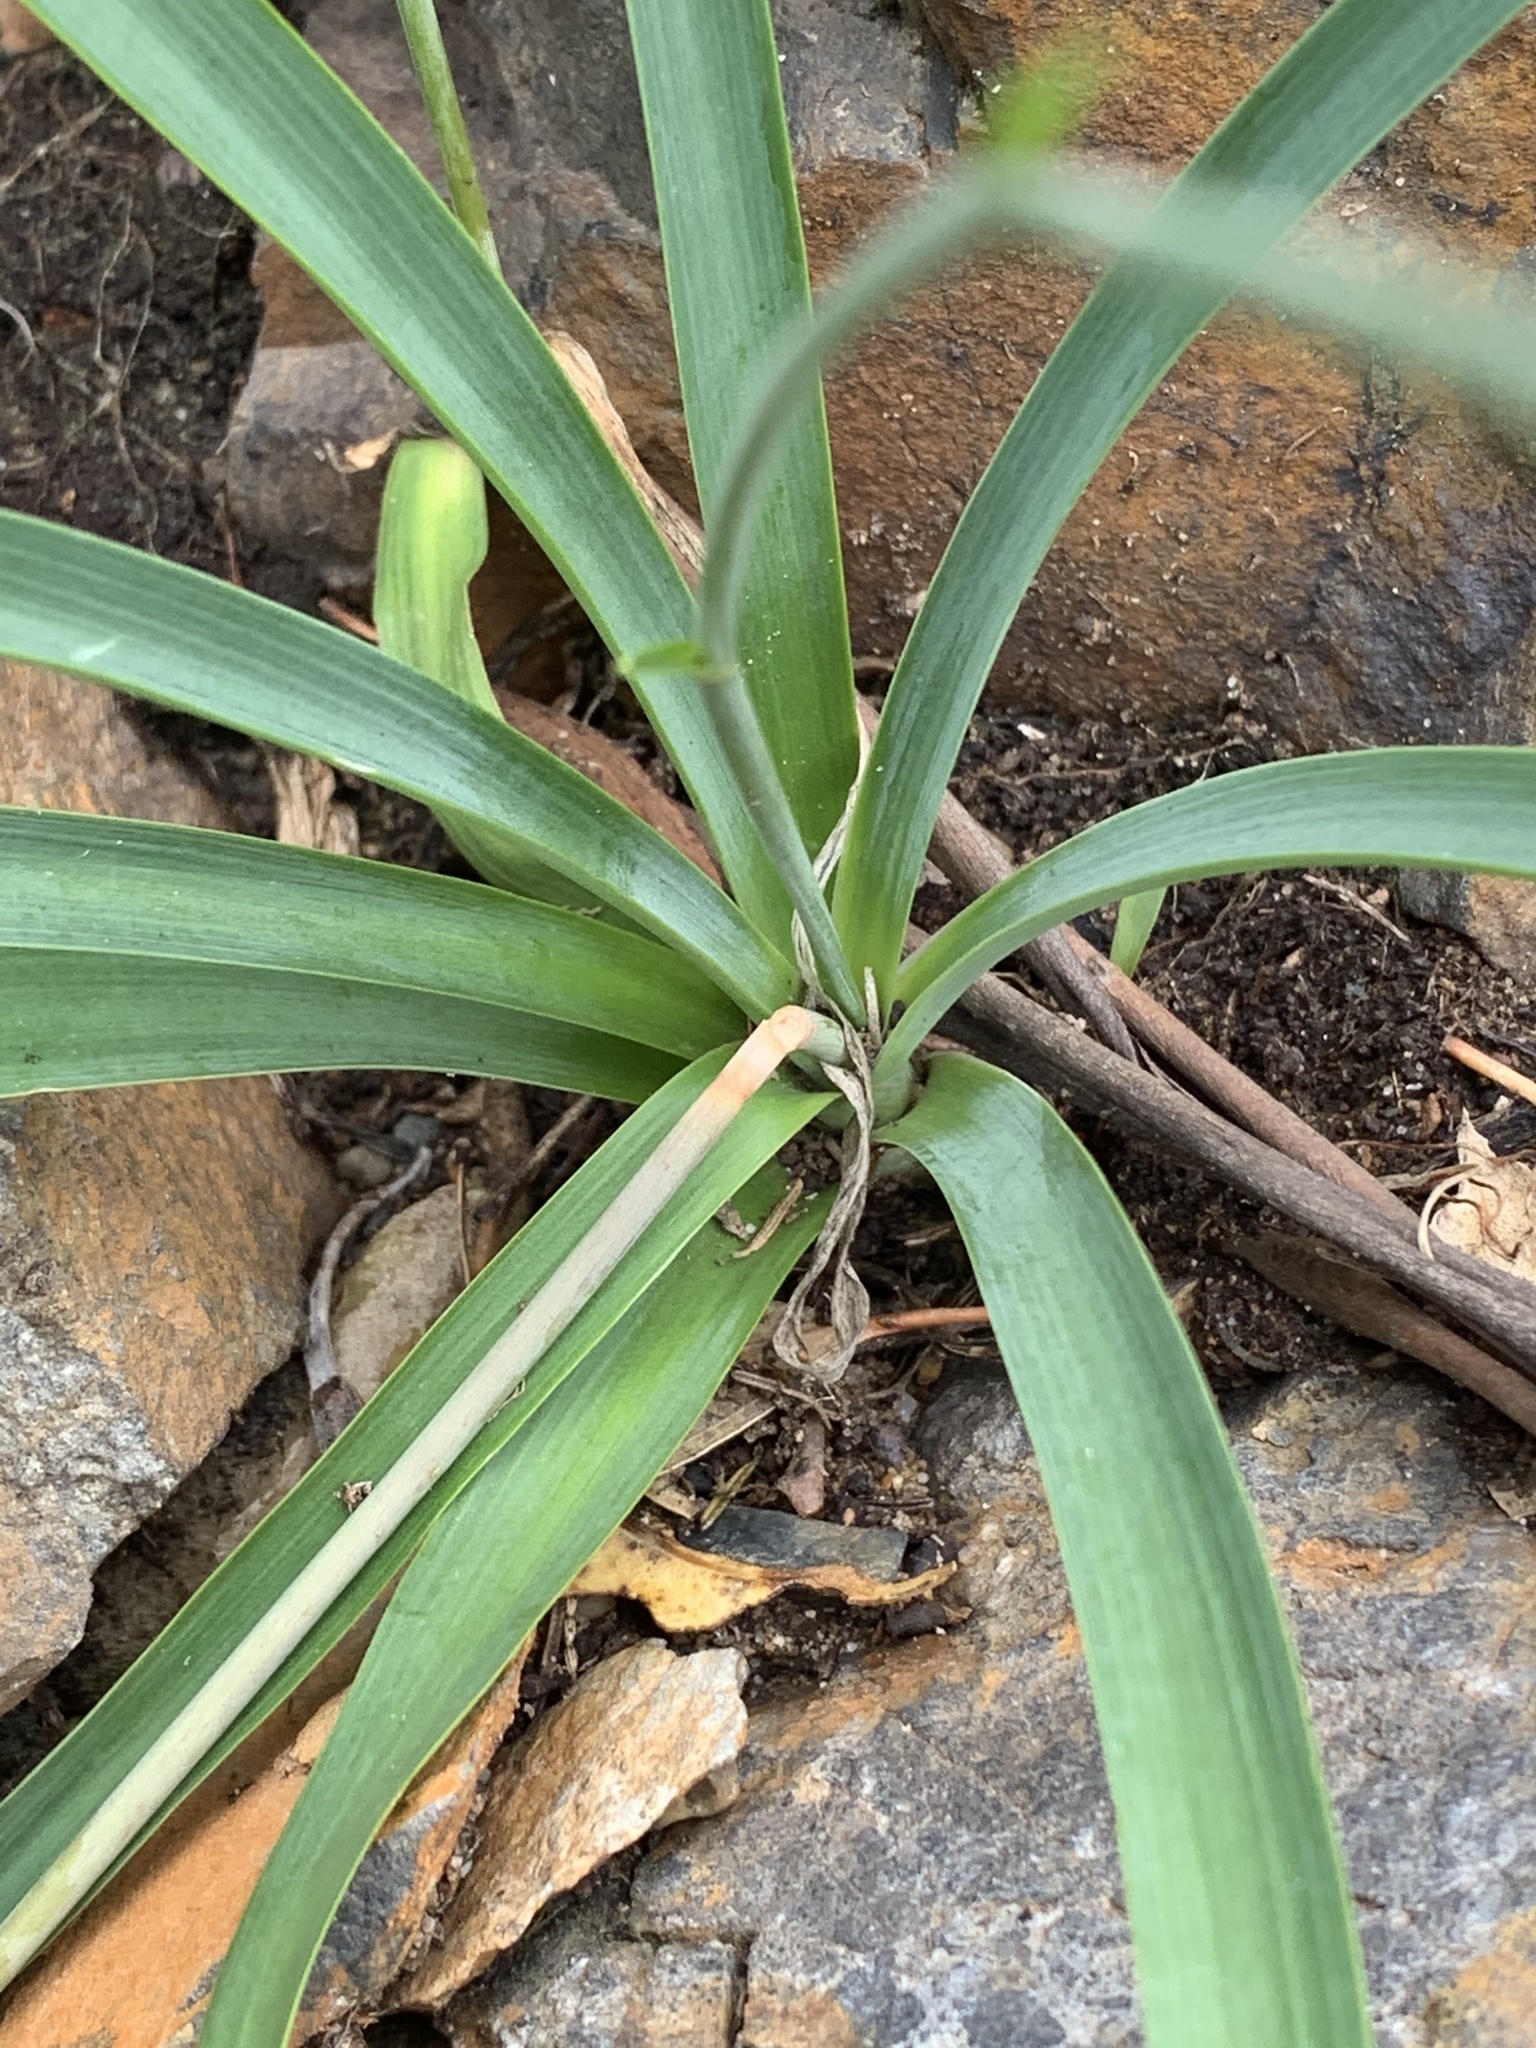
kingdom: Plantae
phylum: Tracheophyta
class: Liliopsida
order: Asparagales
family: Asparagaceae
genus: Arthropodium
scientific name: Arthropodium milleflorum
